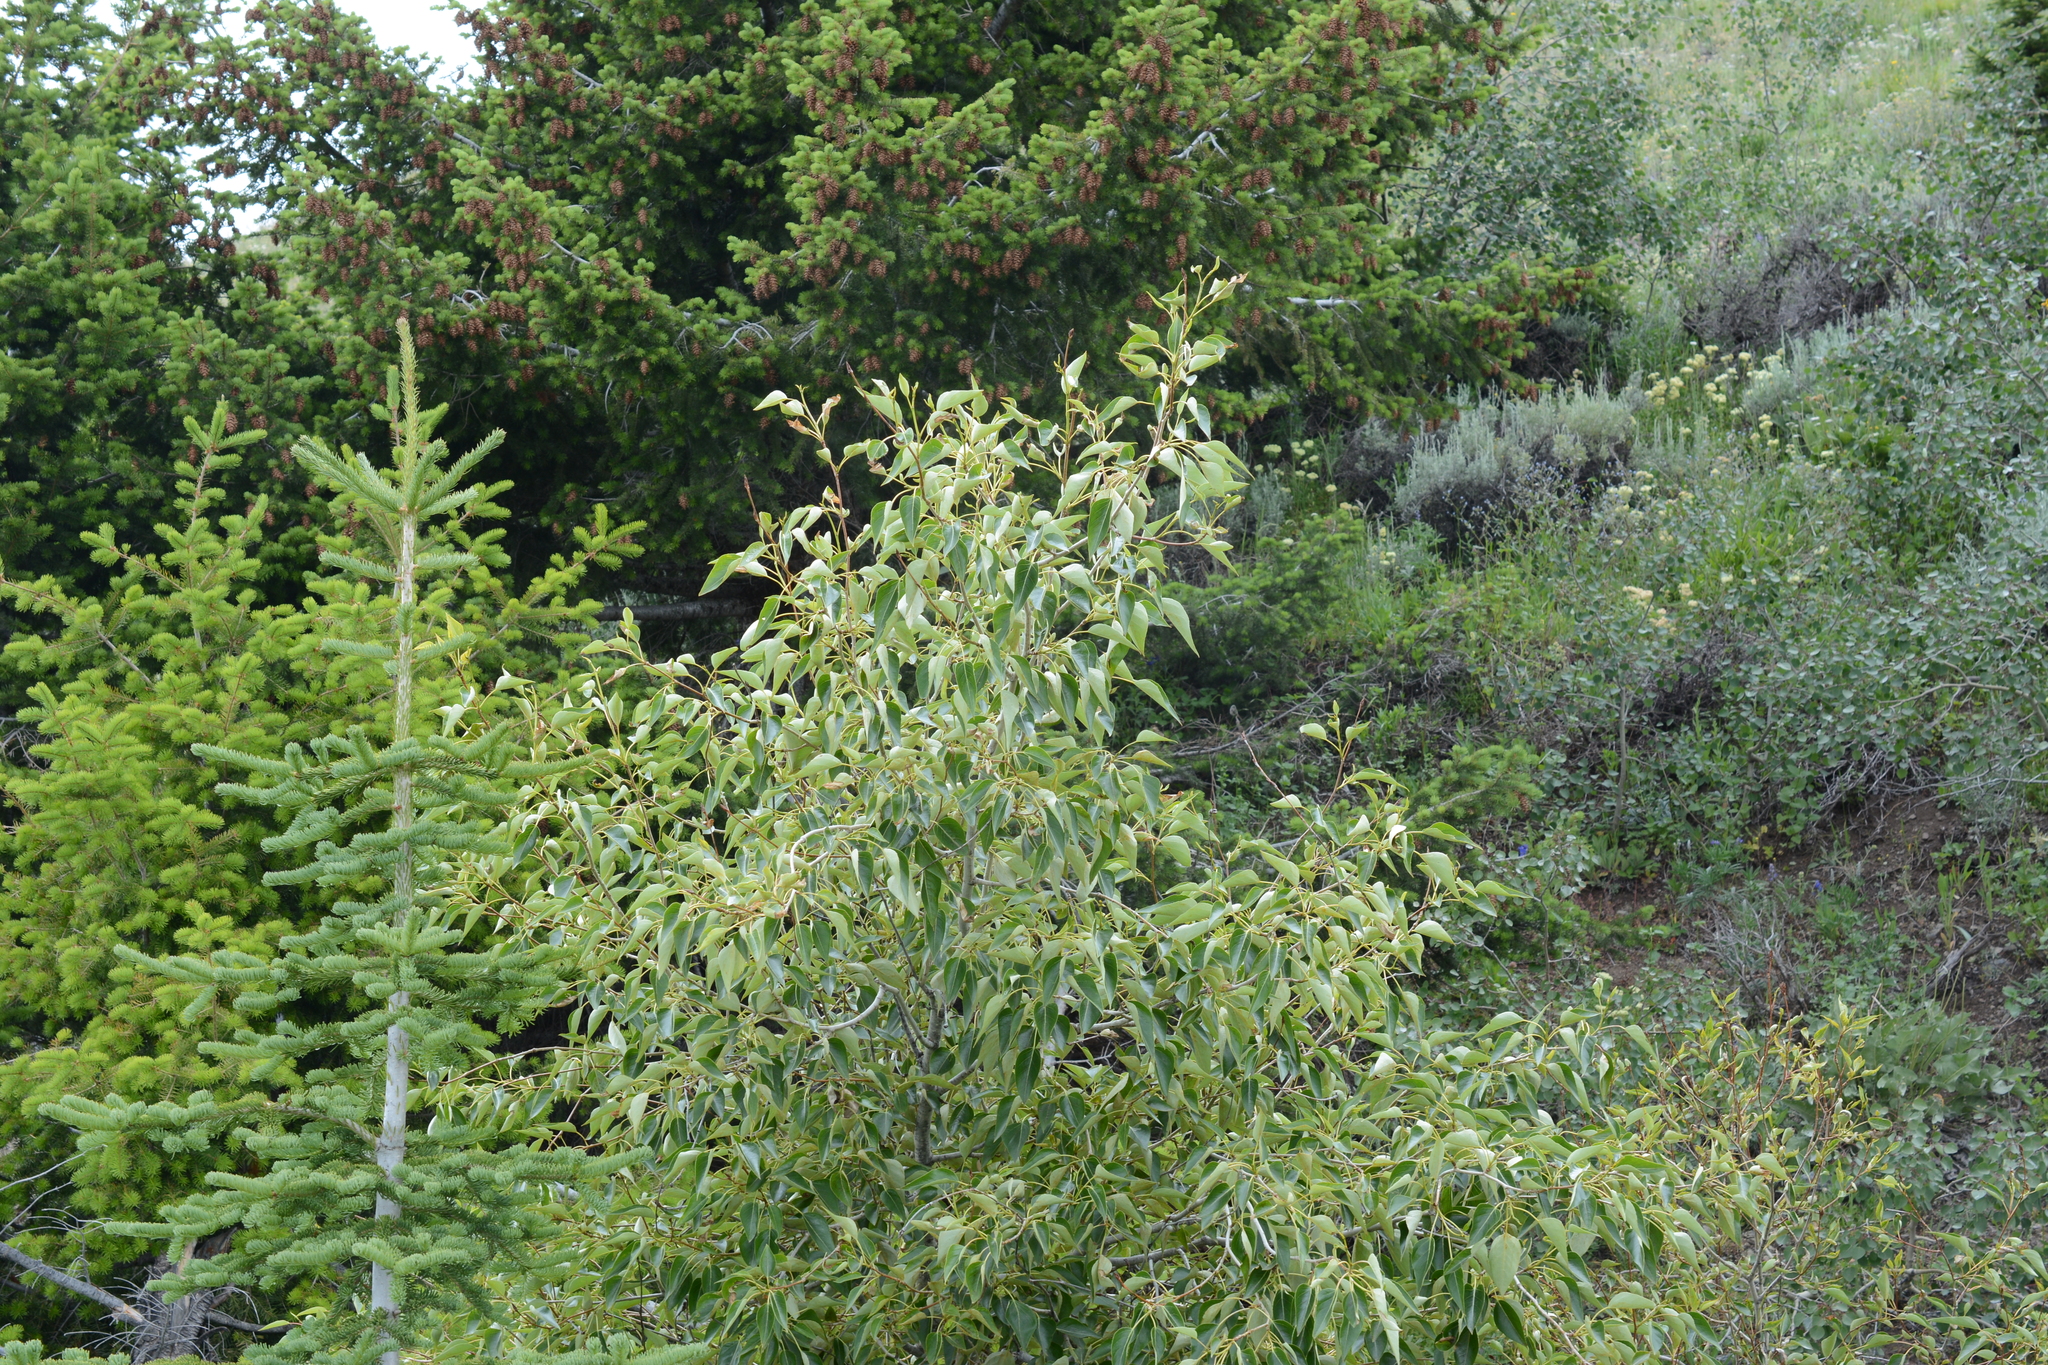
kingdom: Plantae
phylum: Tracheophyta
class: Magnoliopsida
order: Malpighiales
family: Salicaceae
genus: Populus
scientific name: Populus trichocarpa
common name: Black cottonwood
